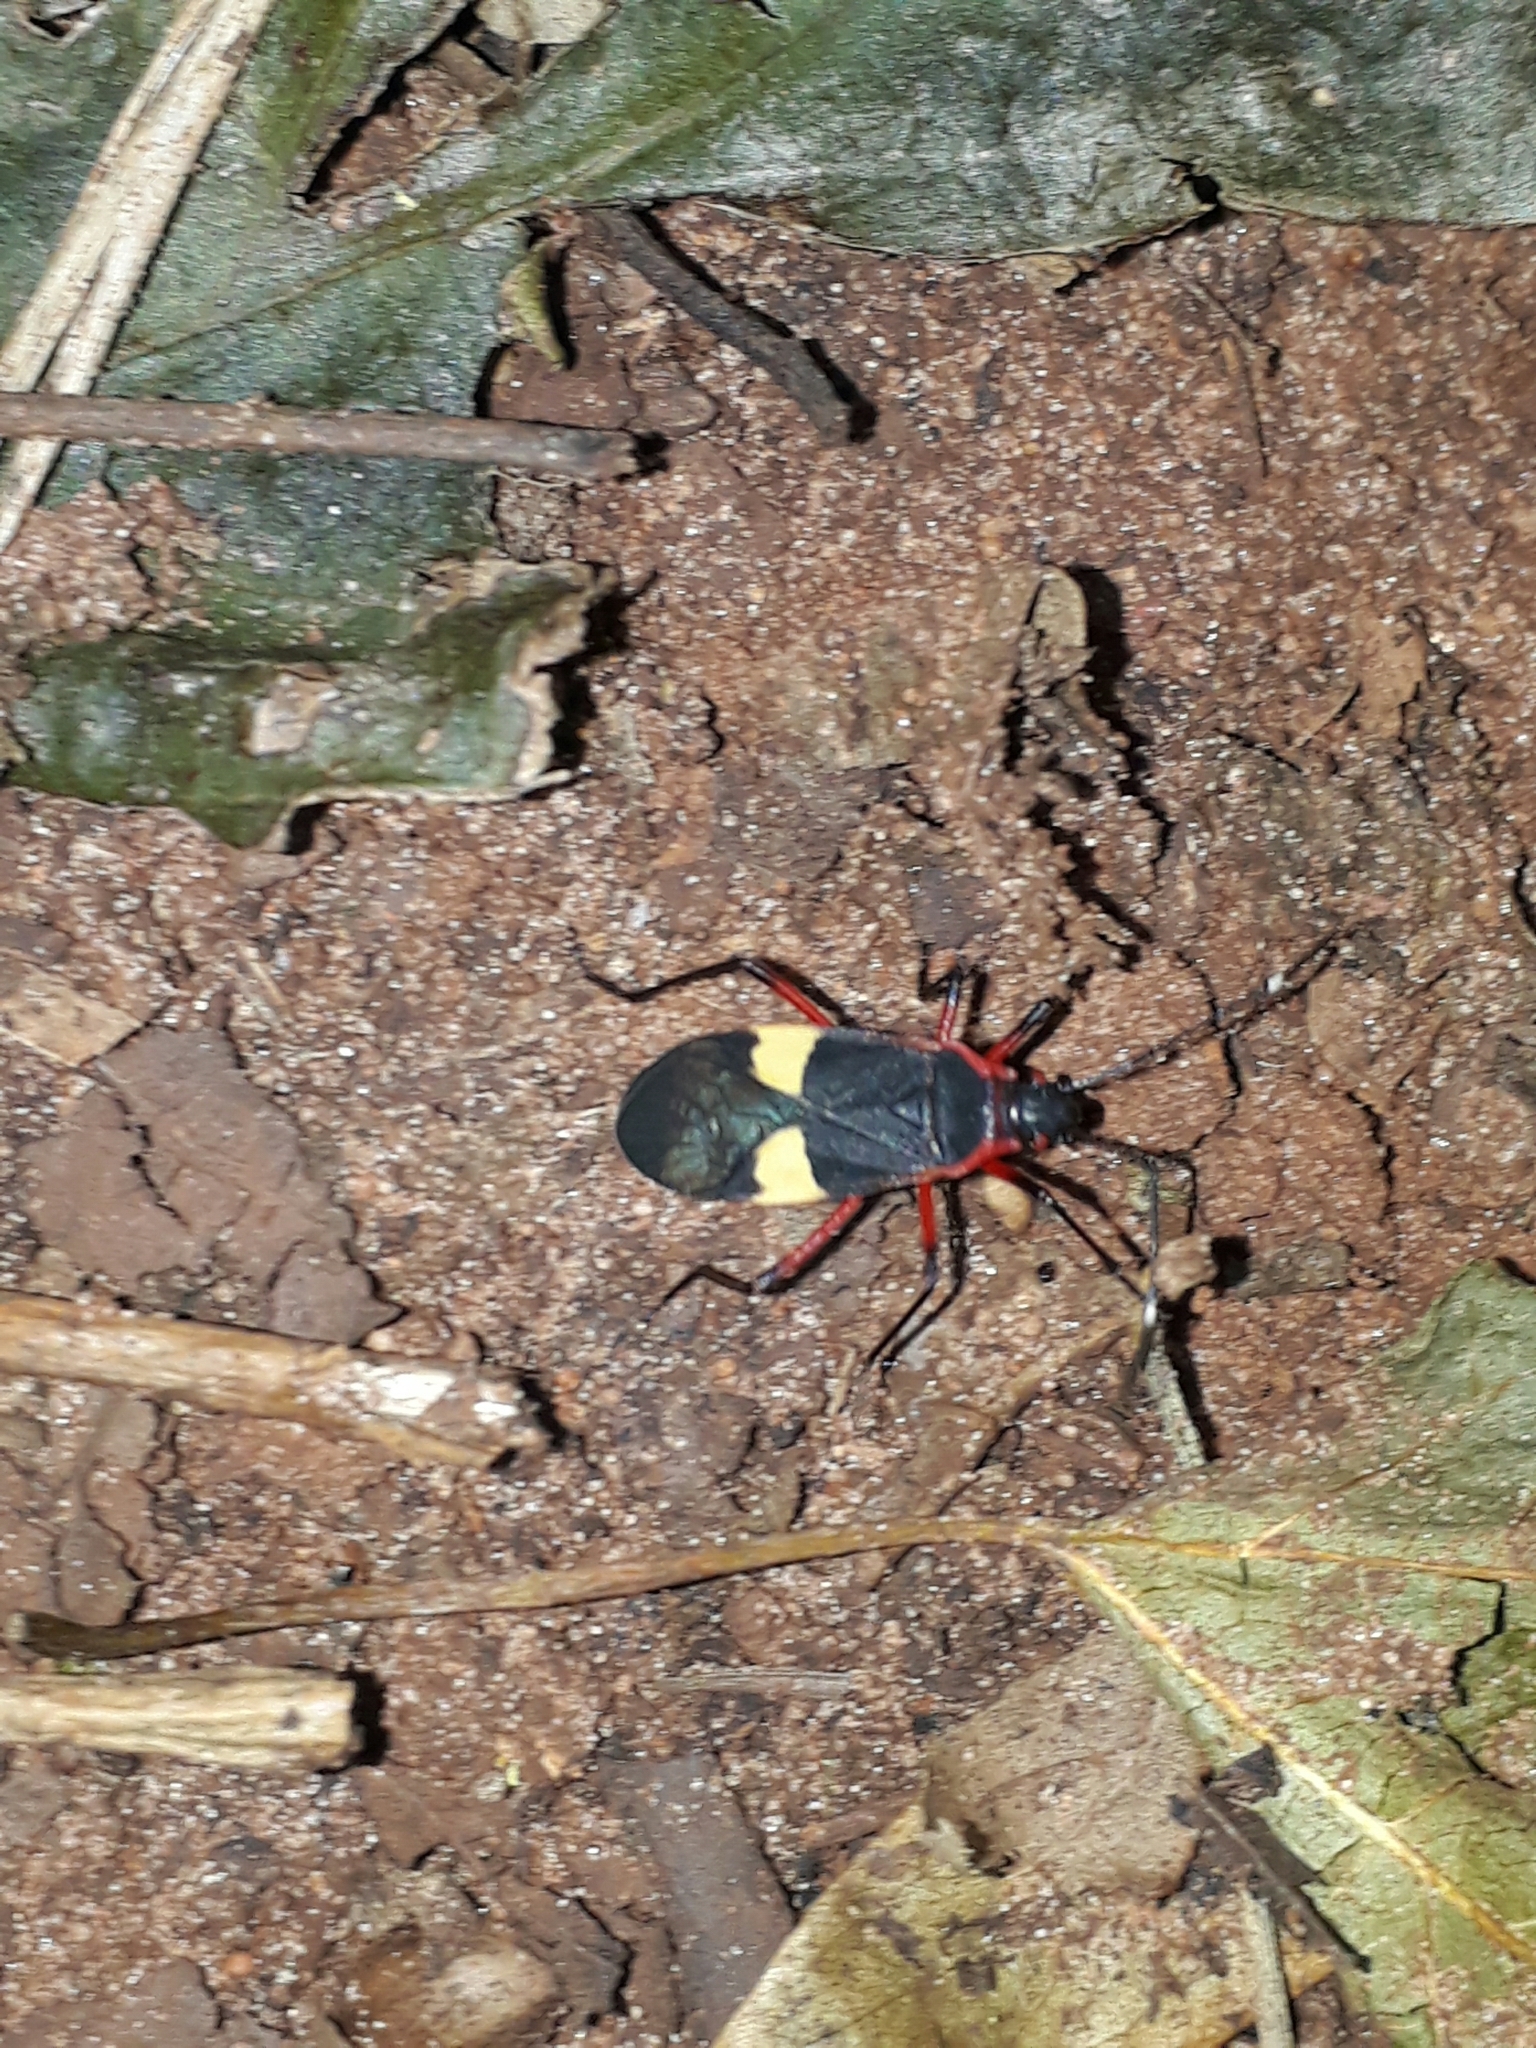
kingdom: Animalia
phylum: Arthropoda
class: Insecta
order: Hemiptera
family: Pyrrhocoridae
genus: Dysdercus
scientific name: Dysdercus albofasciatus
